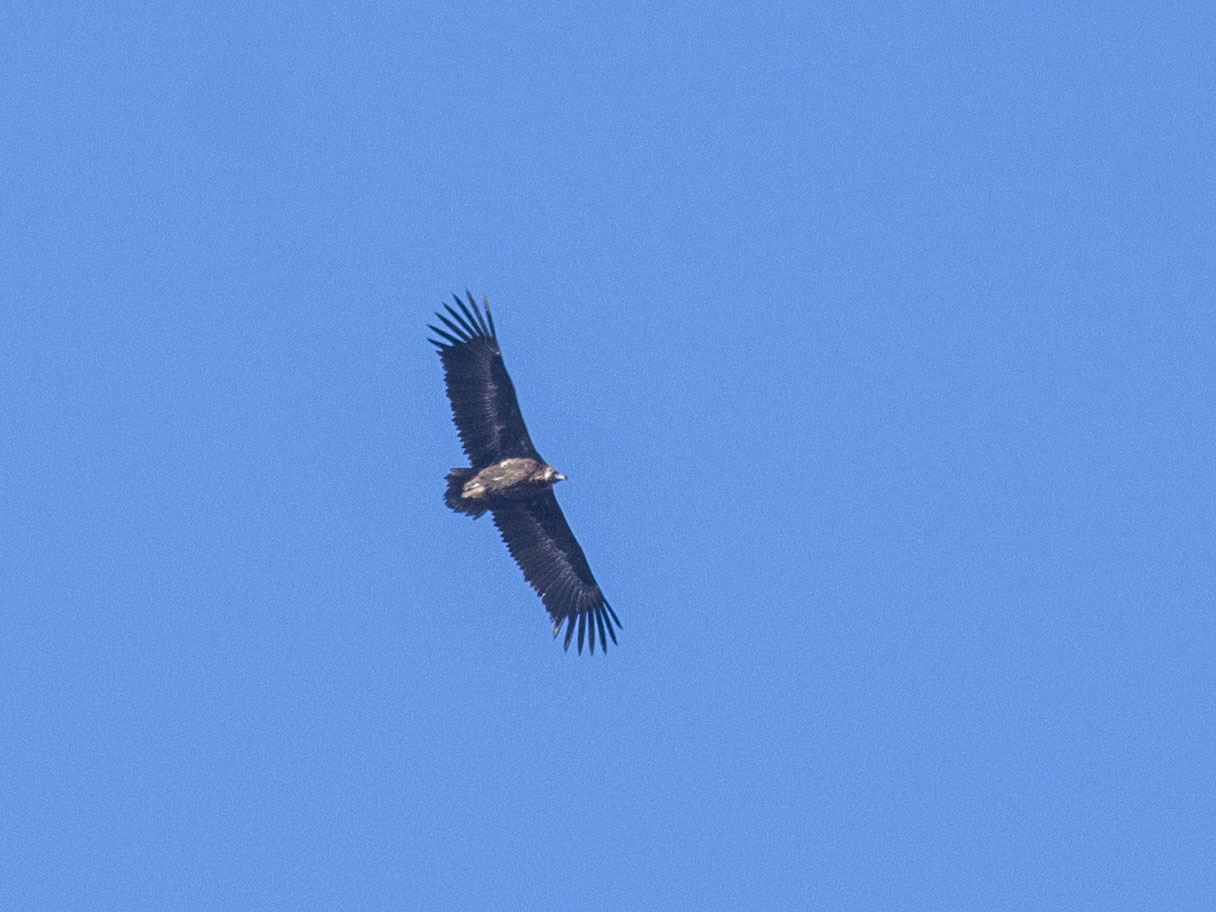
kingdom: Animalia
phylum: Chordata
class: Aves
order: Accipitriformes
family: Accipitridae
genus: Aegypius
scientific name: Aegypius monachus
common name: Cinereous vulture
